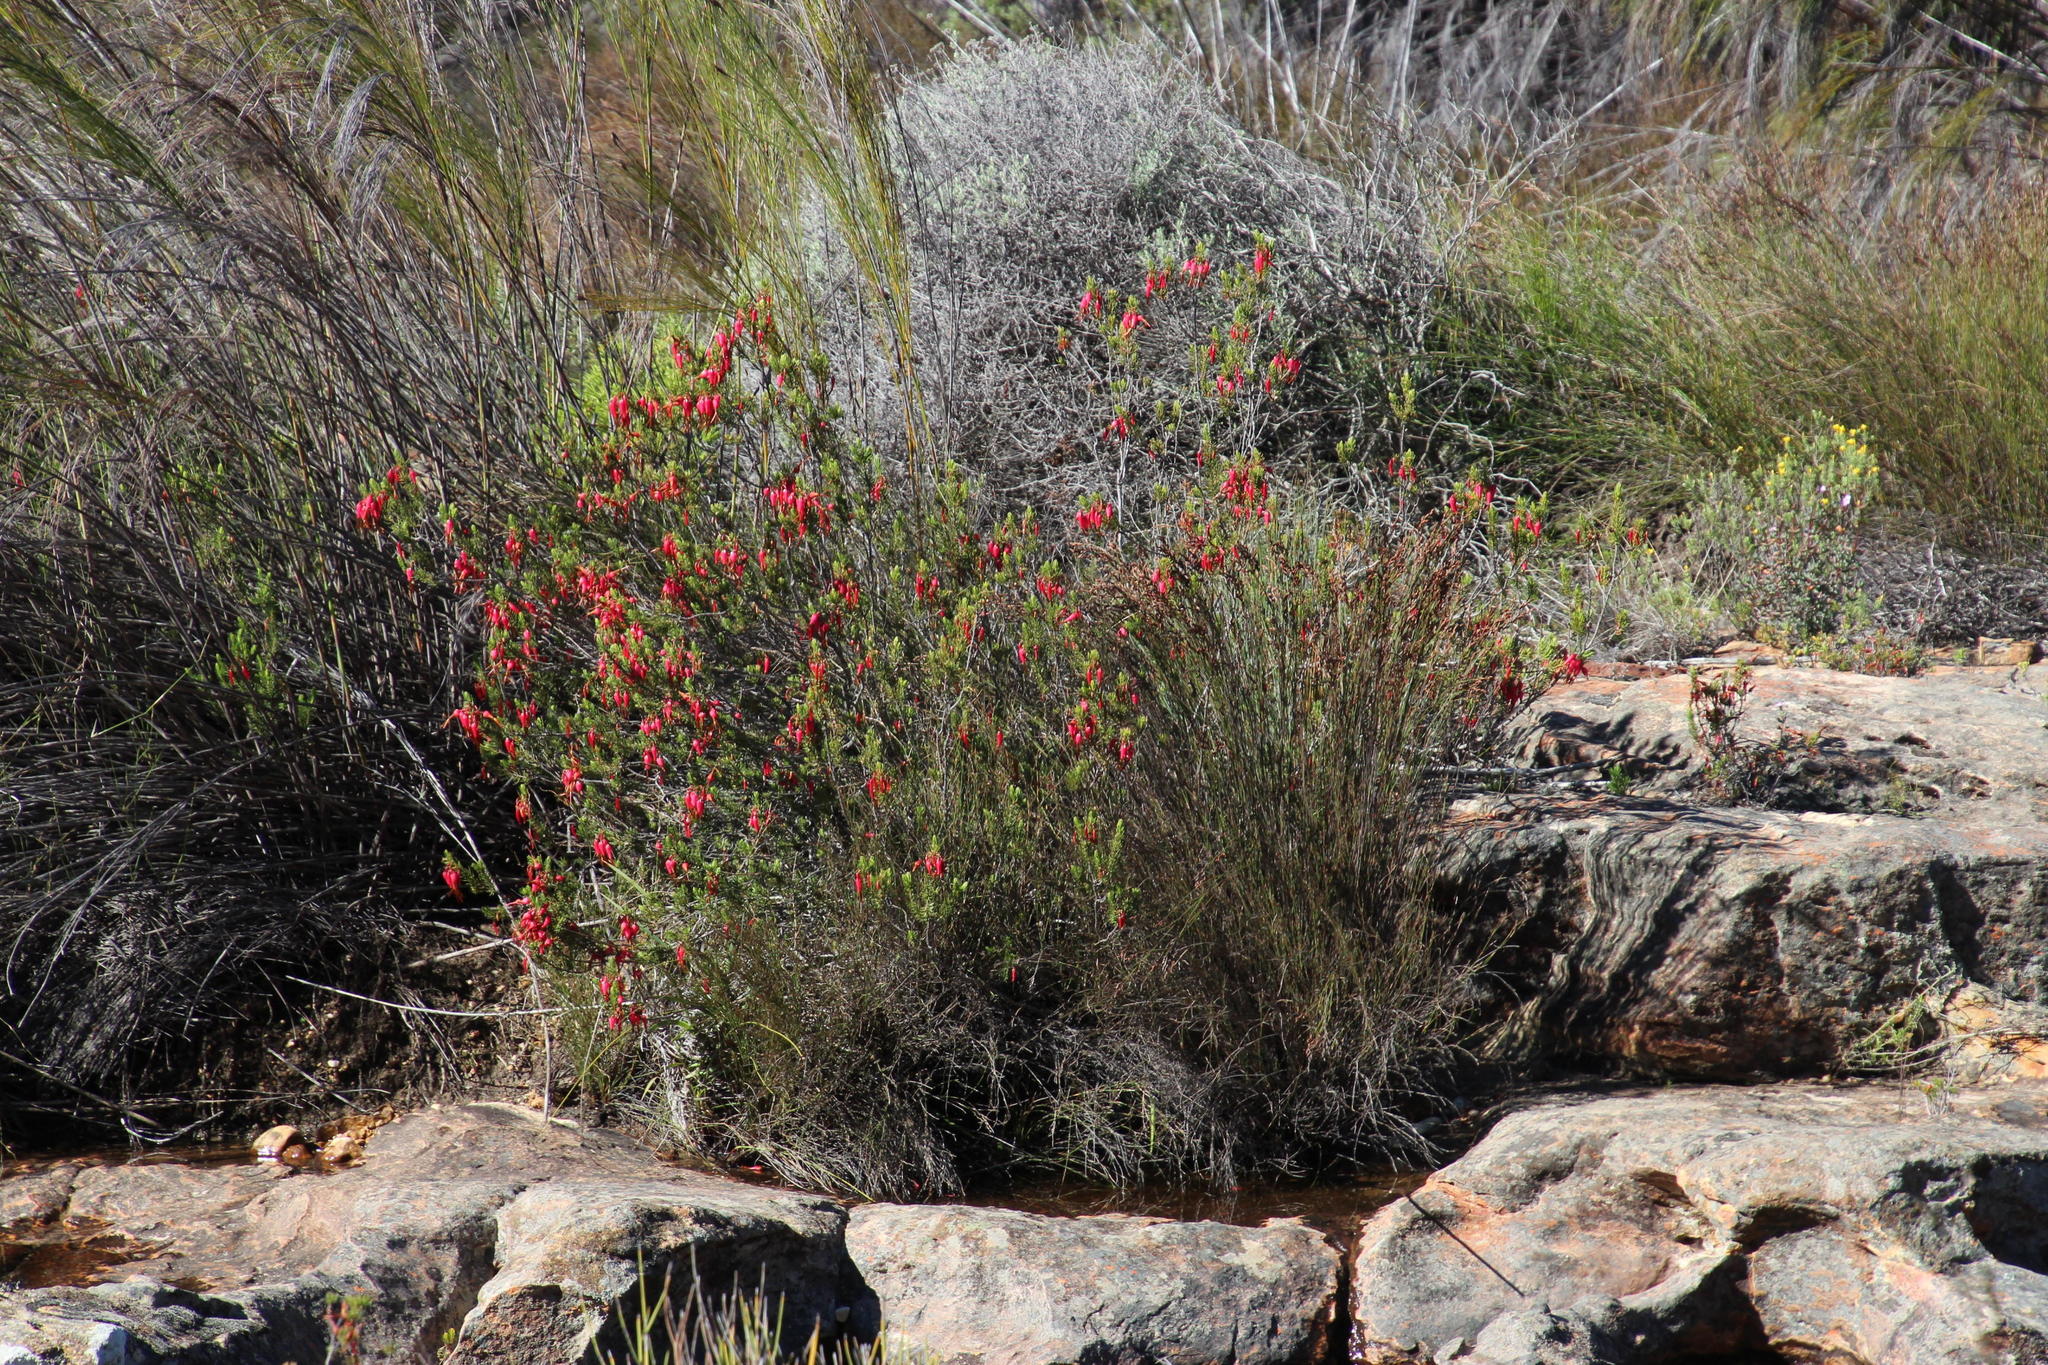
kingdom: Plantae
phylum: Tracheophyta
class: Magnoliopsida
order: Ericales
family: Ericaceae
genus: Erica
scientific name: Erica plukenetii
